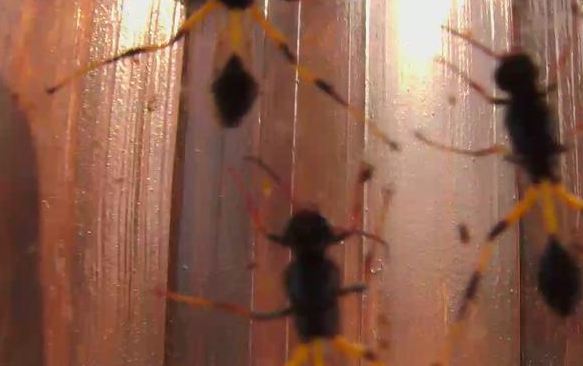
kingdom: Animalia
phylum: Arthropoda
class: Insecta
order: Hymenoptera
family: Sphecidae
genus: Chalybion
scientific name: Chalybion spinolae
